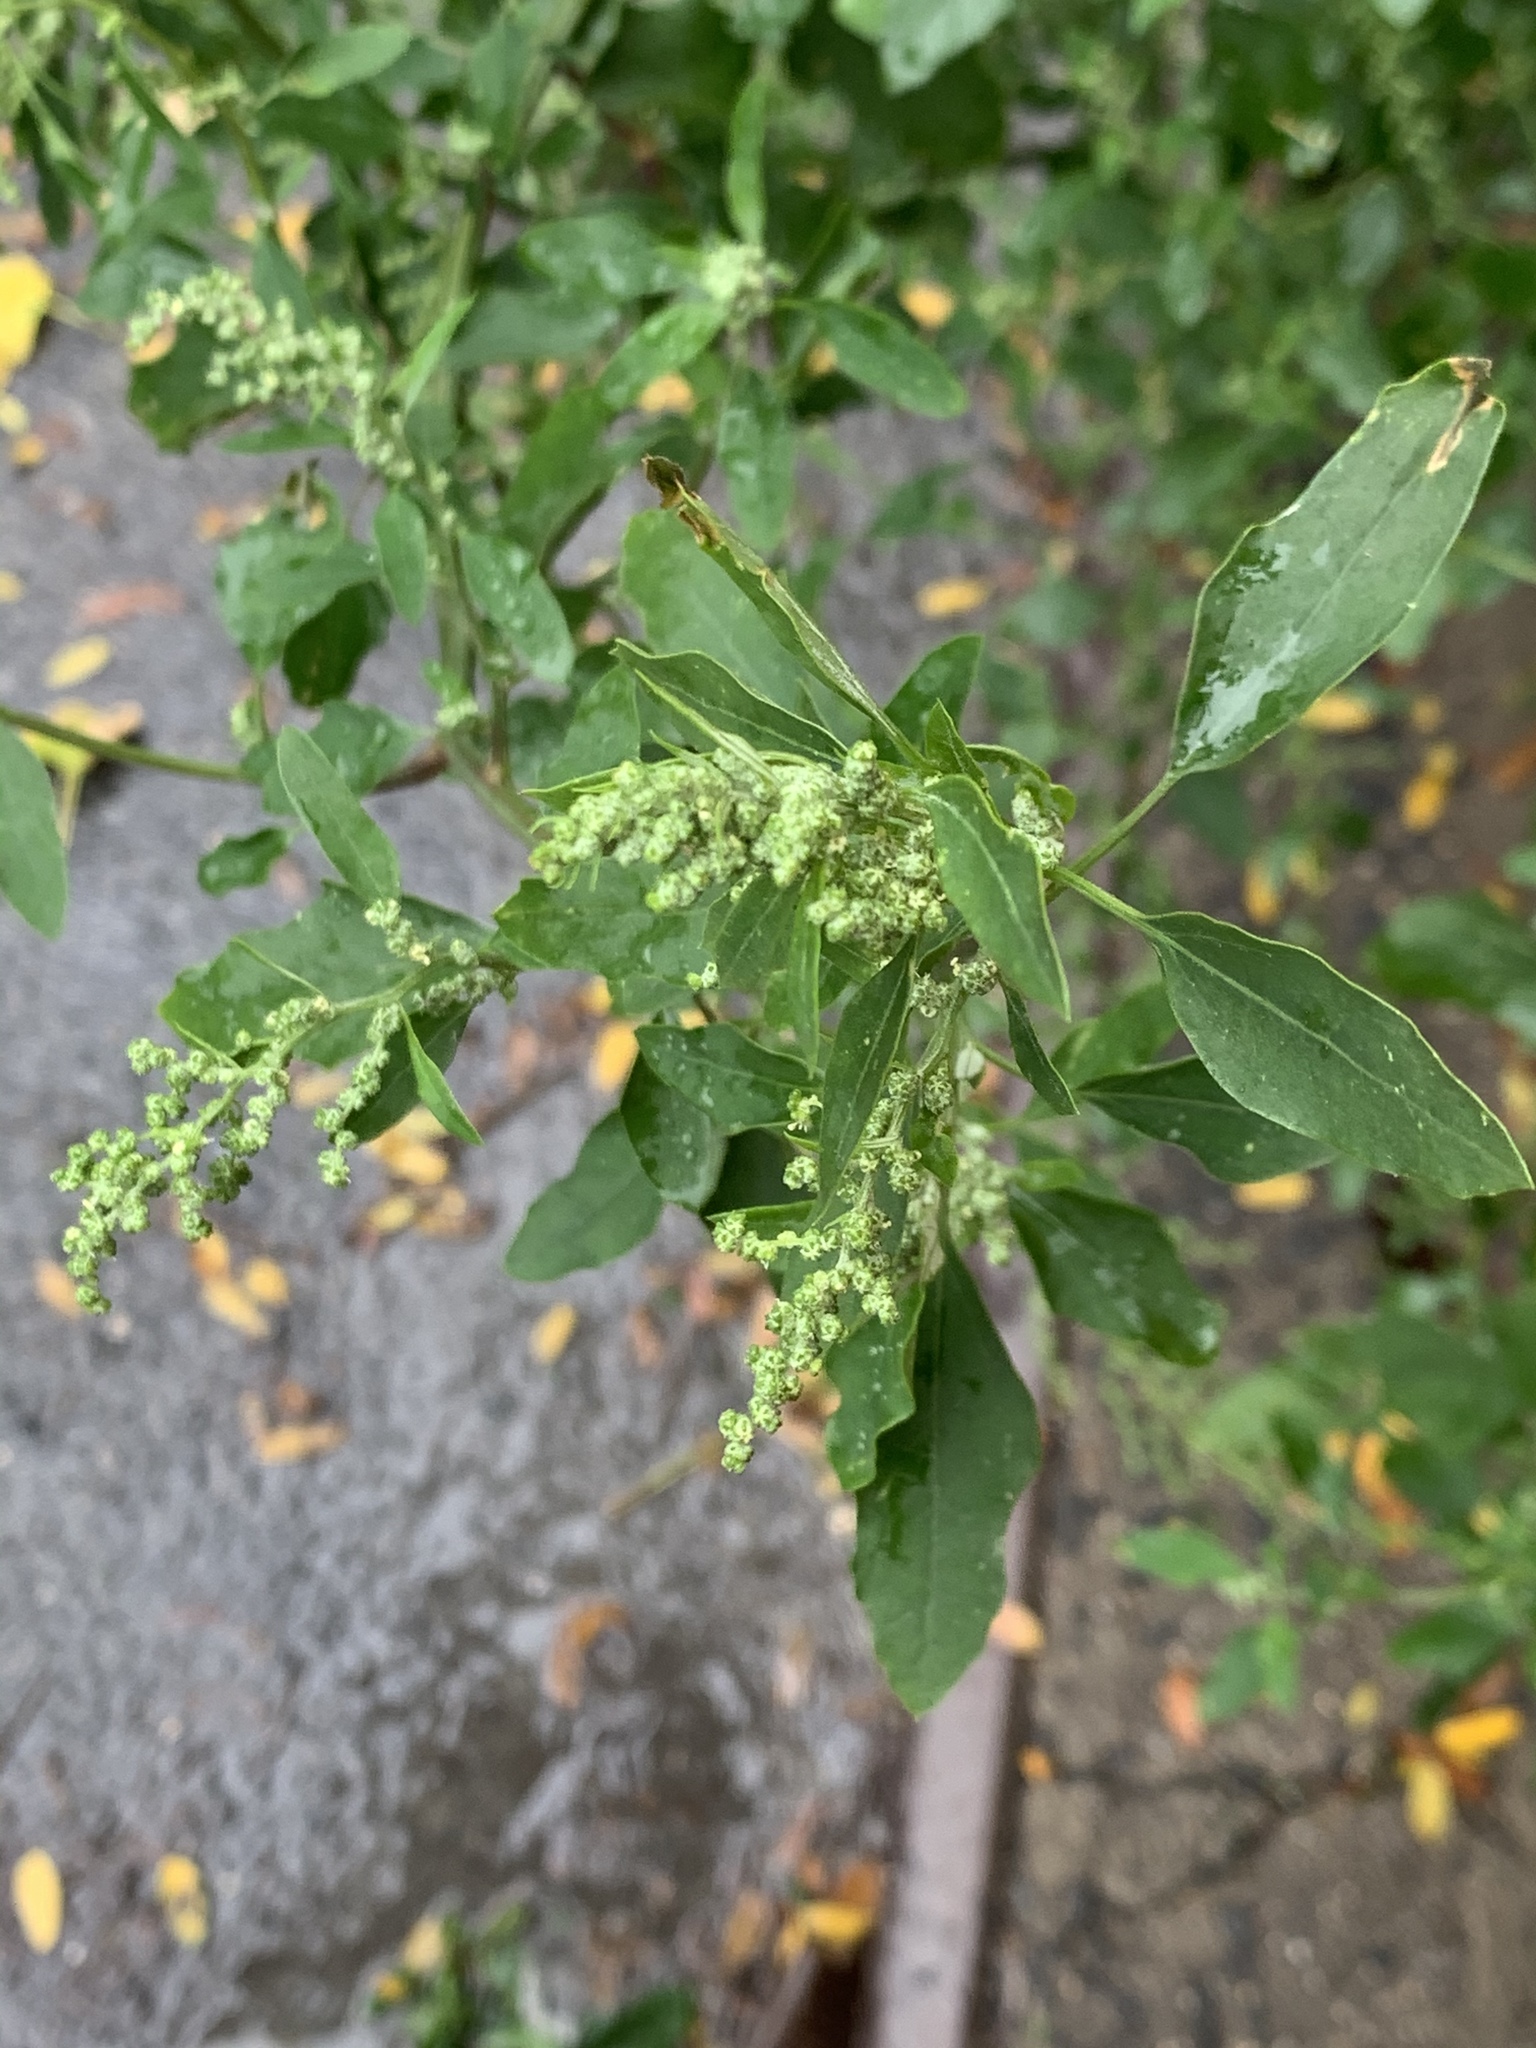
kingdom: Plantae
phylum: Tracheophyta
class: Magnoliopsida
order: Caryophyllales
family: Amaranthaceae
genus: Chenopodium
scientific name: Chenopodium album
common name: Fat-hen
